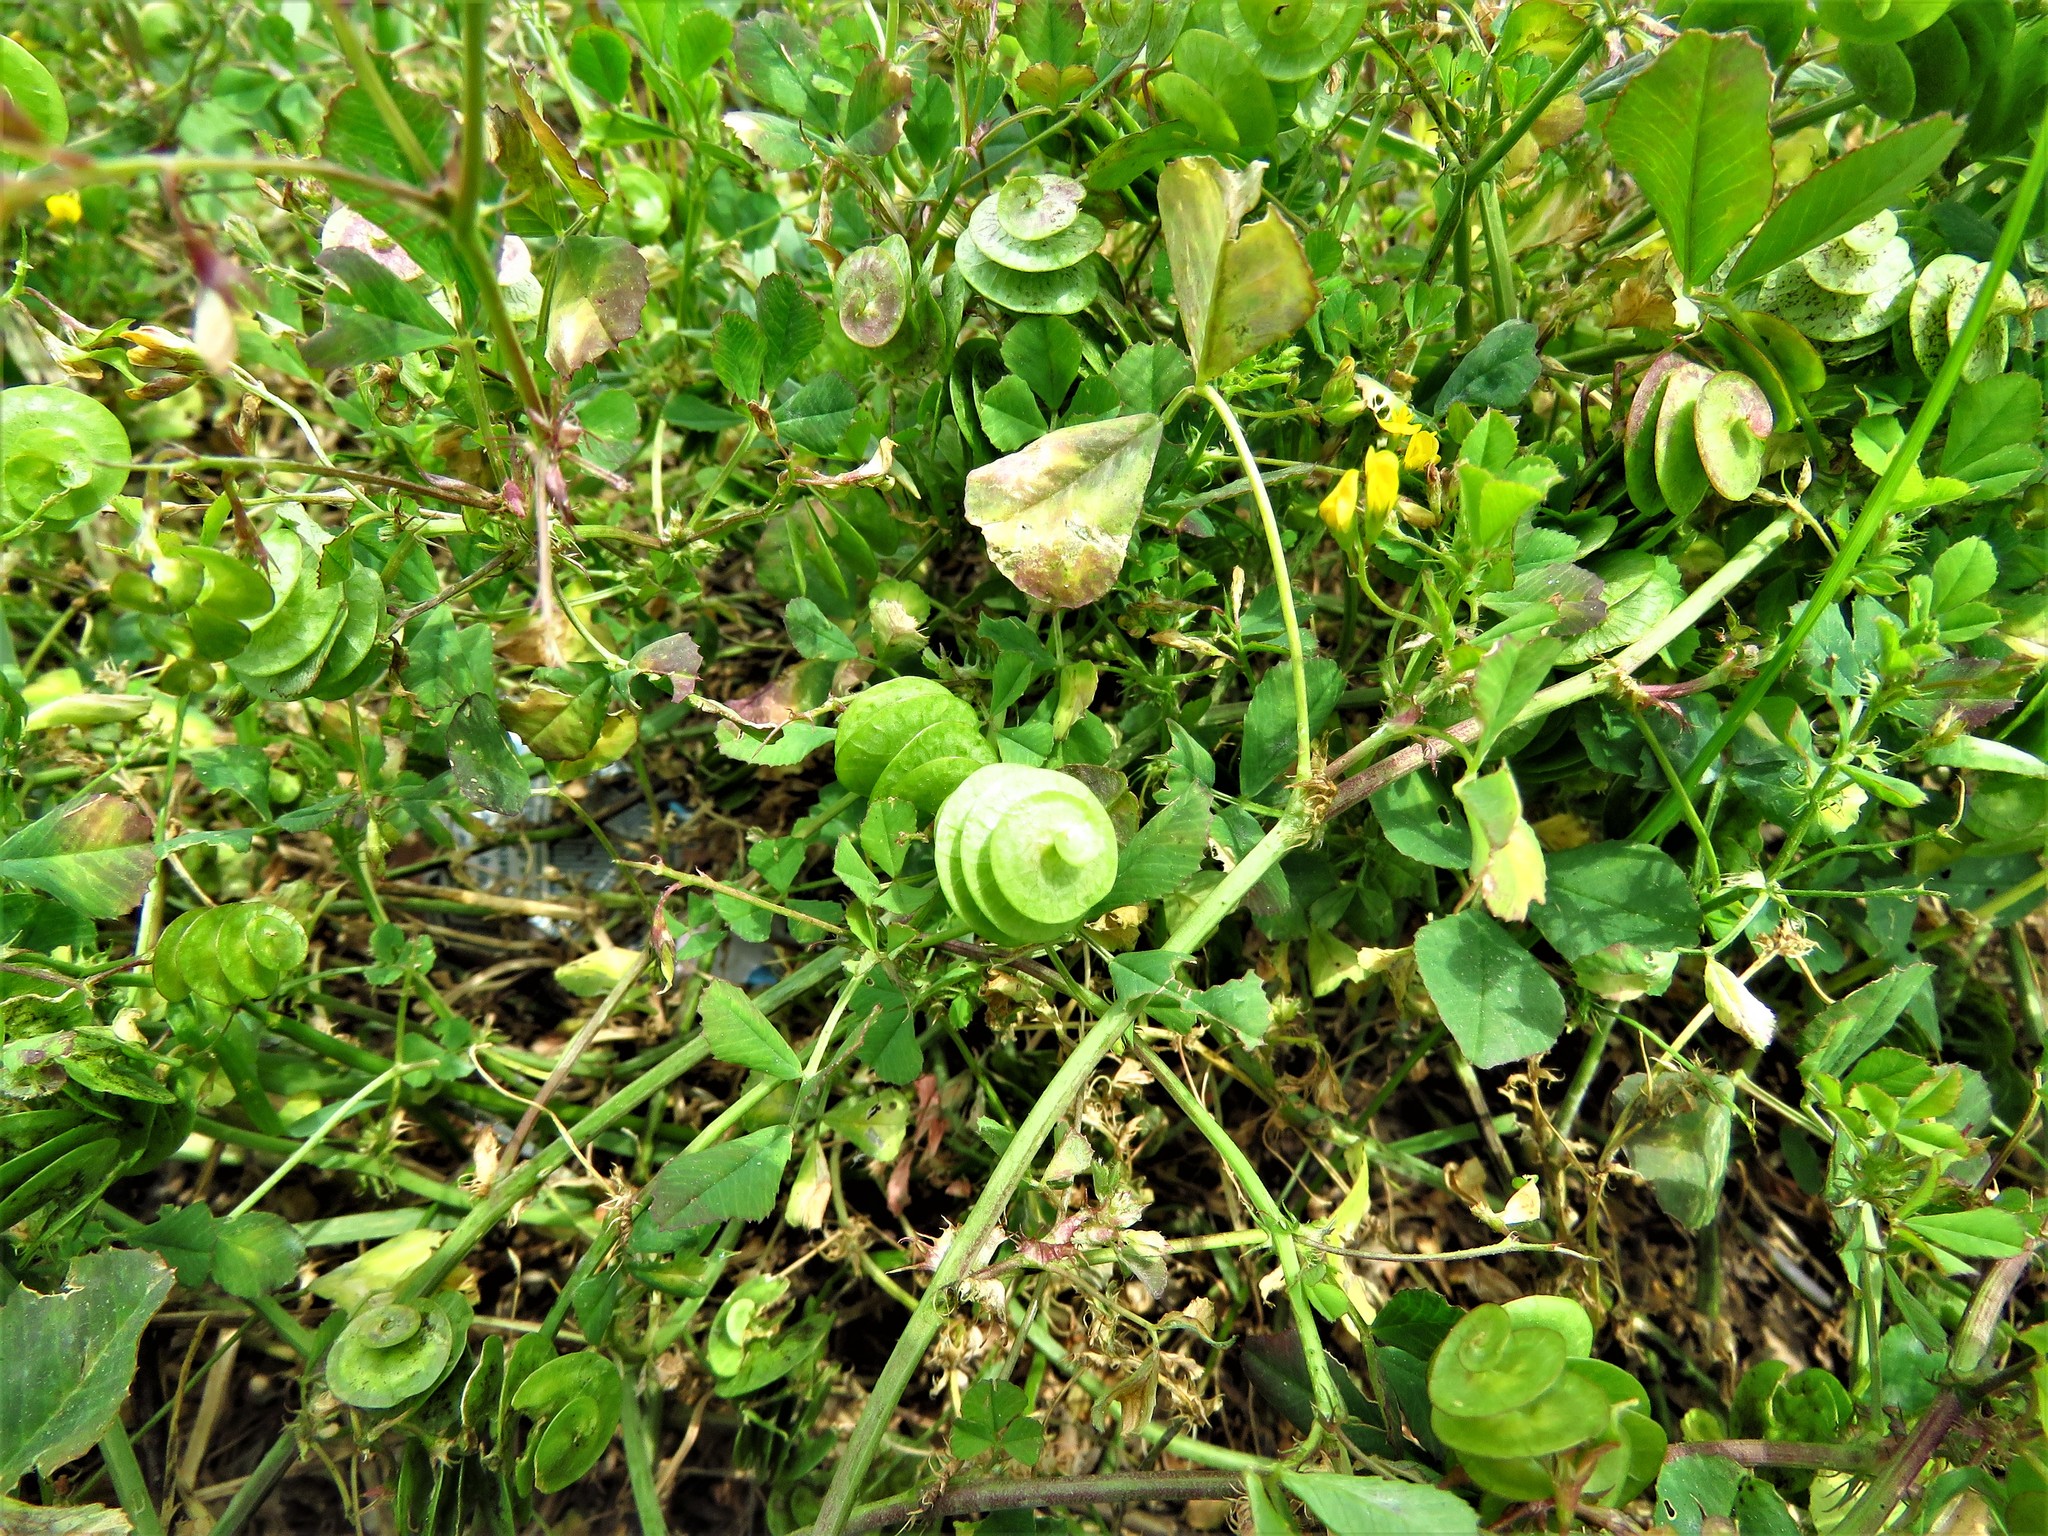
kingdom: Plantae
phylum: Tracheophyta
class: Magnoliopsida
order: Fabales
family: Fabaceae
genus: Medicago
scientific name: Medicago orbicularis
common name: Button medick
